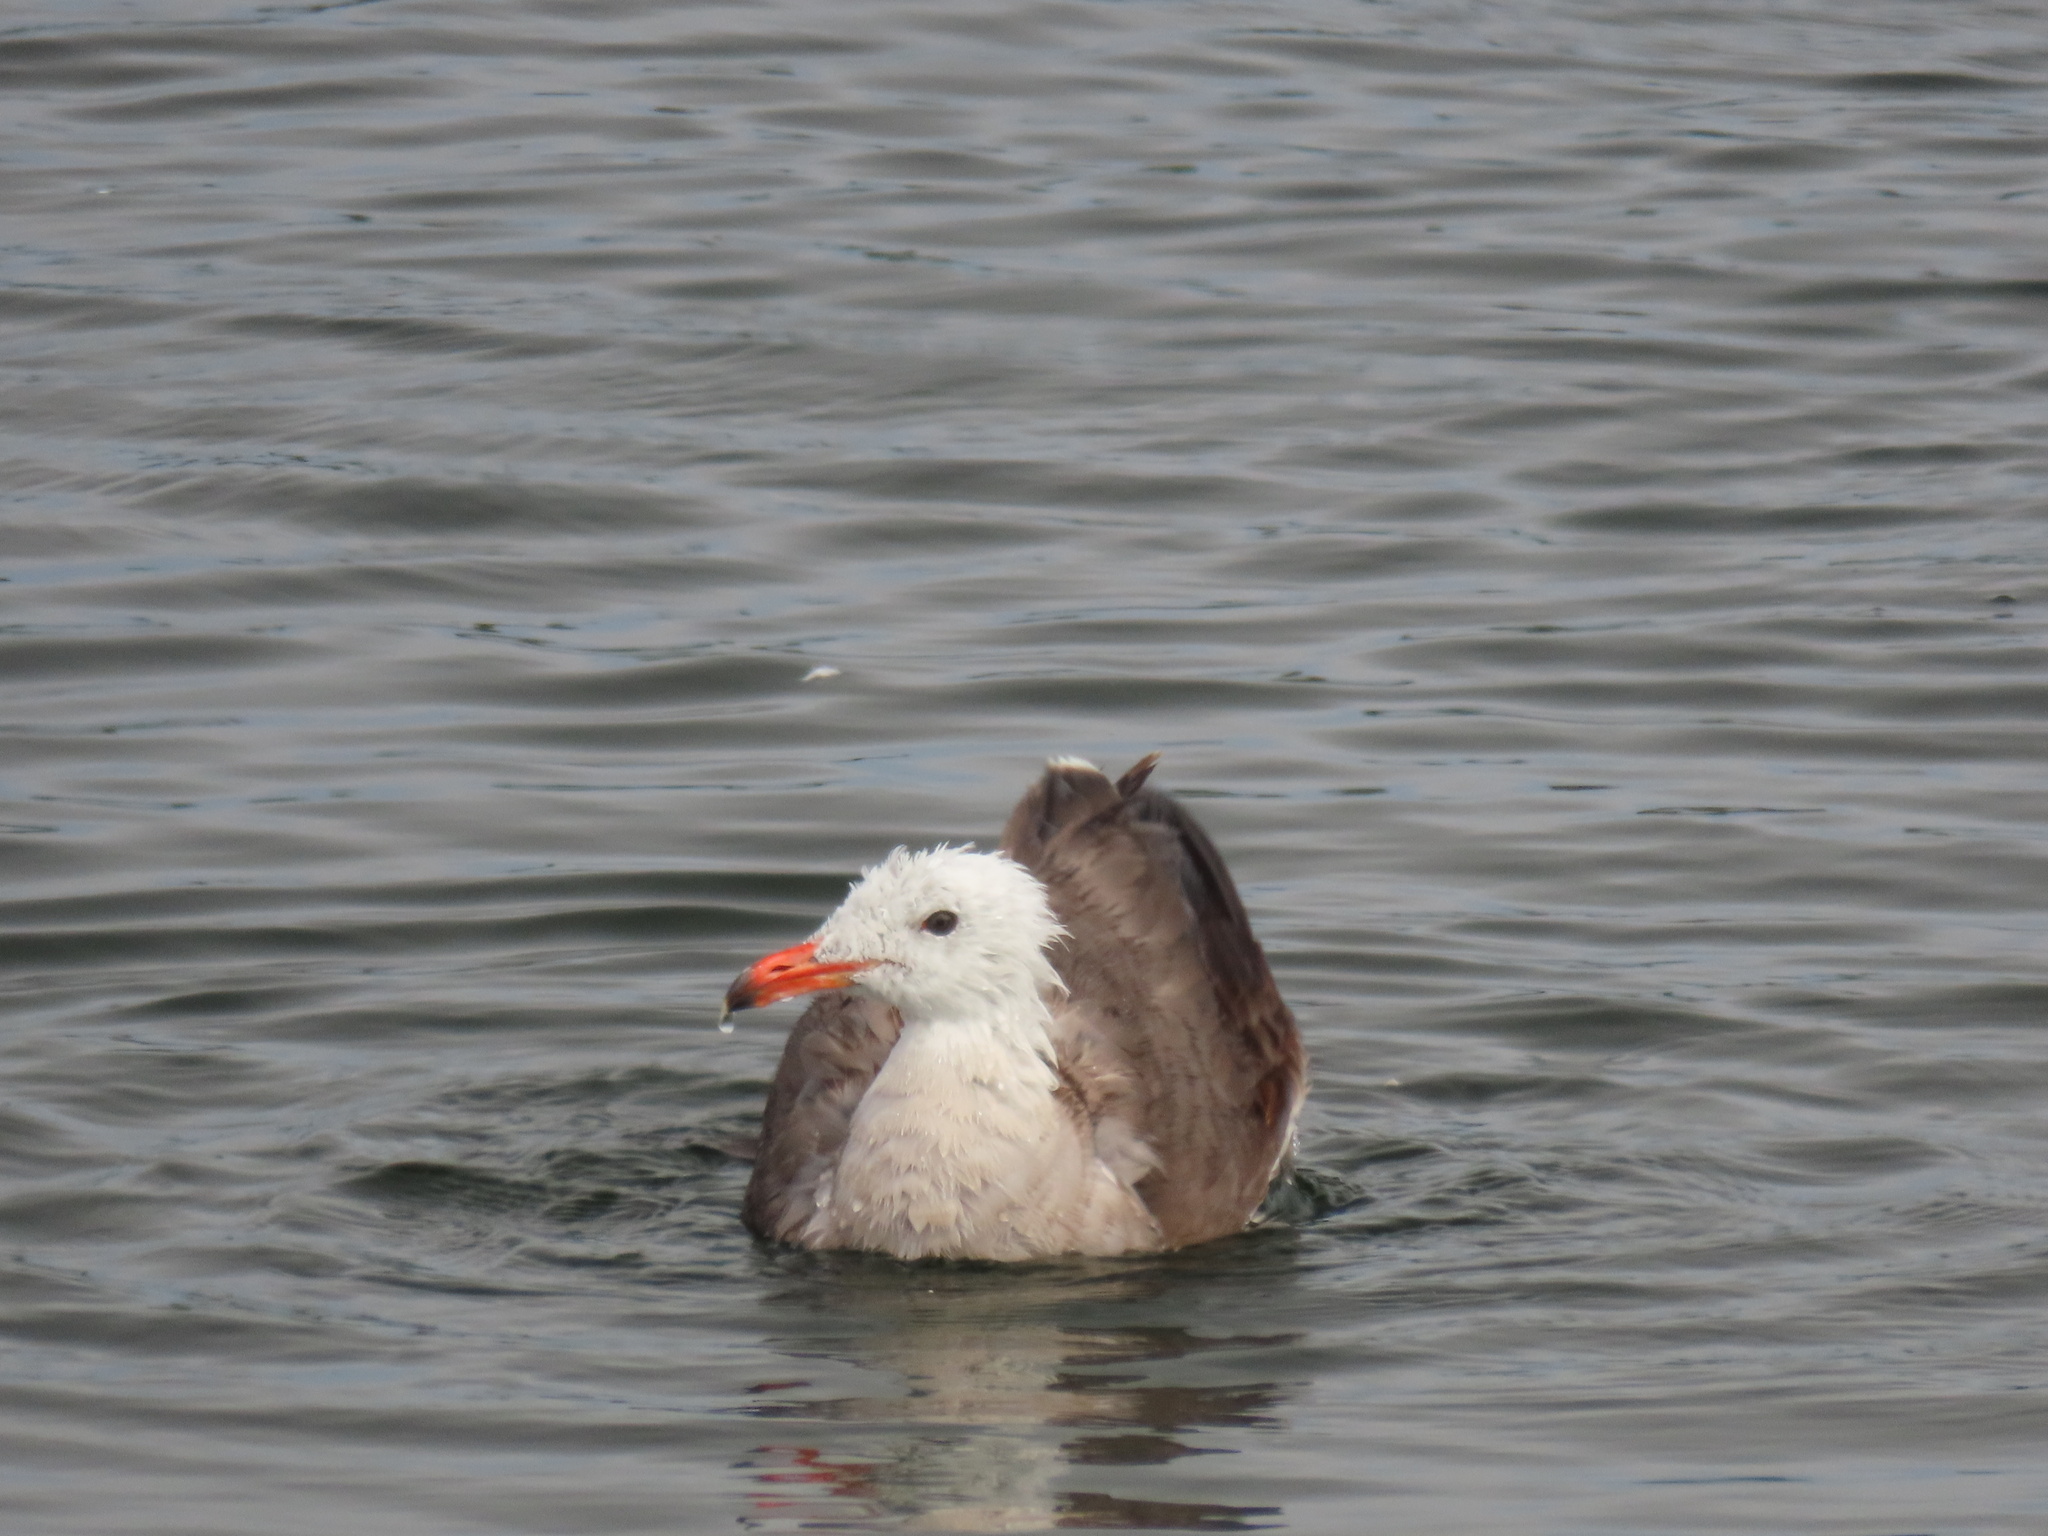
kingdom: Animalia
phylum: Chordata
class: Aves
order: Charadriiformes
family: Laridae
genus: Larus
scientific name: Larus heermanni
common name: Heermann's gull
